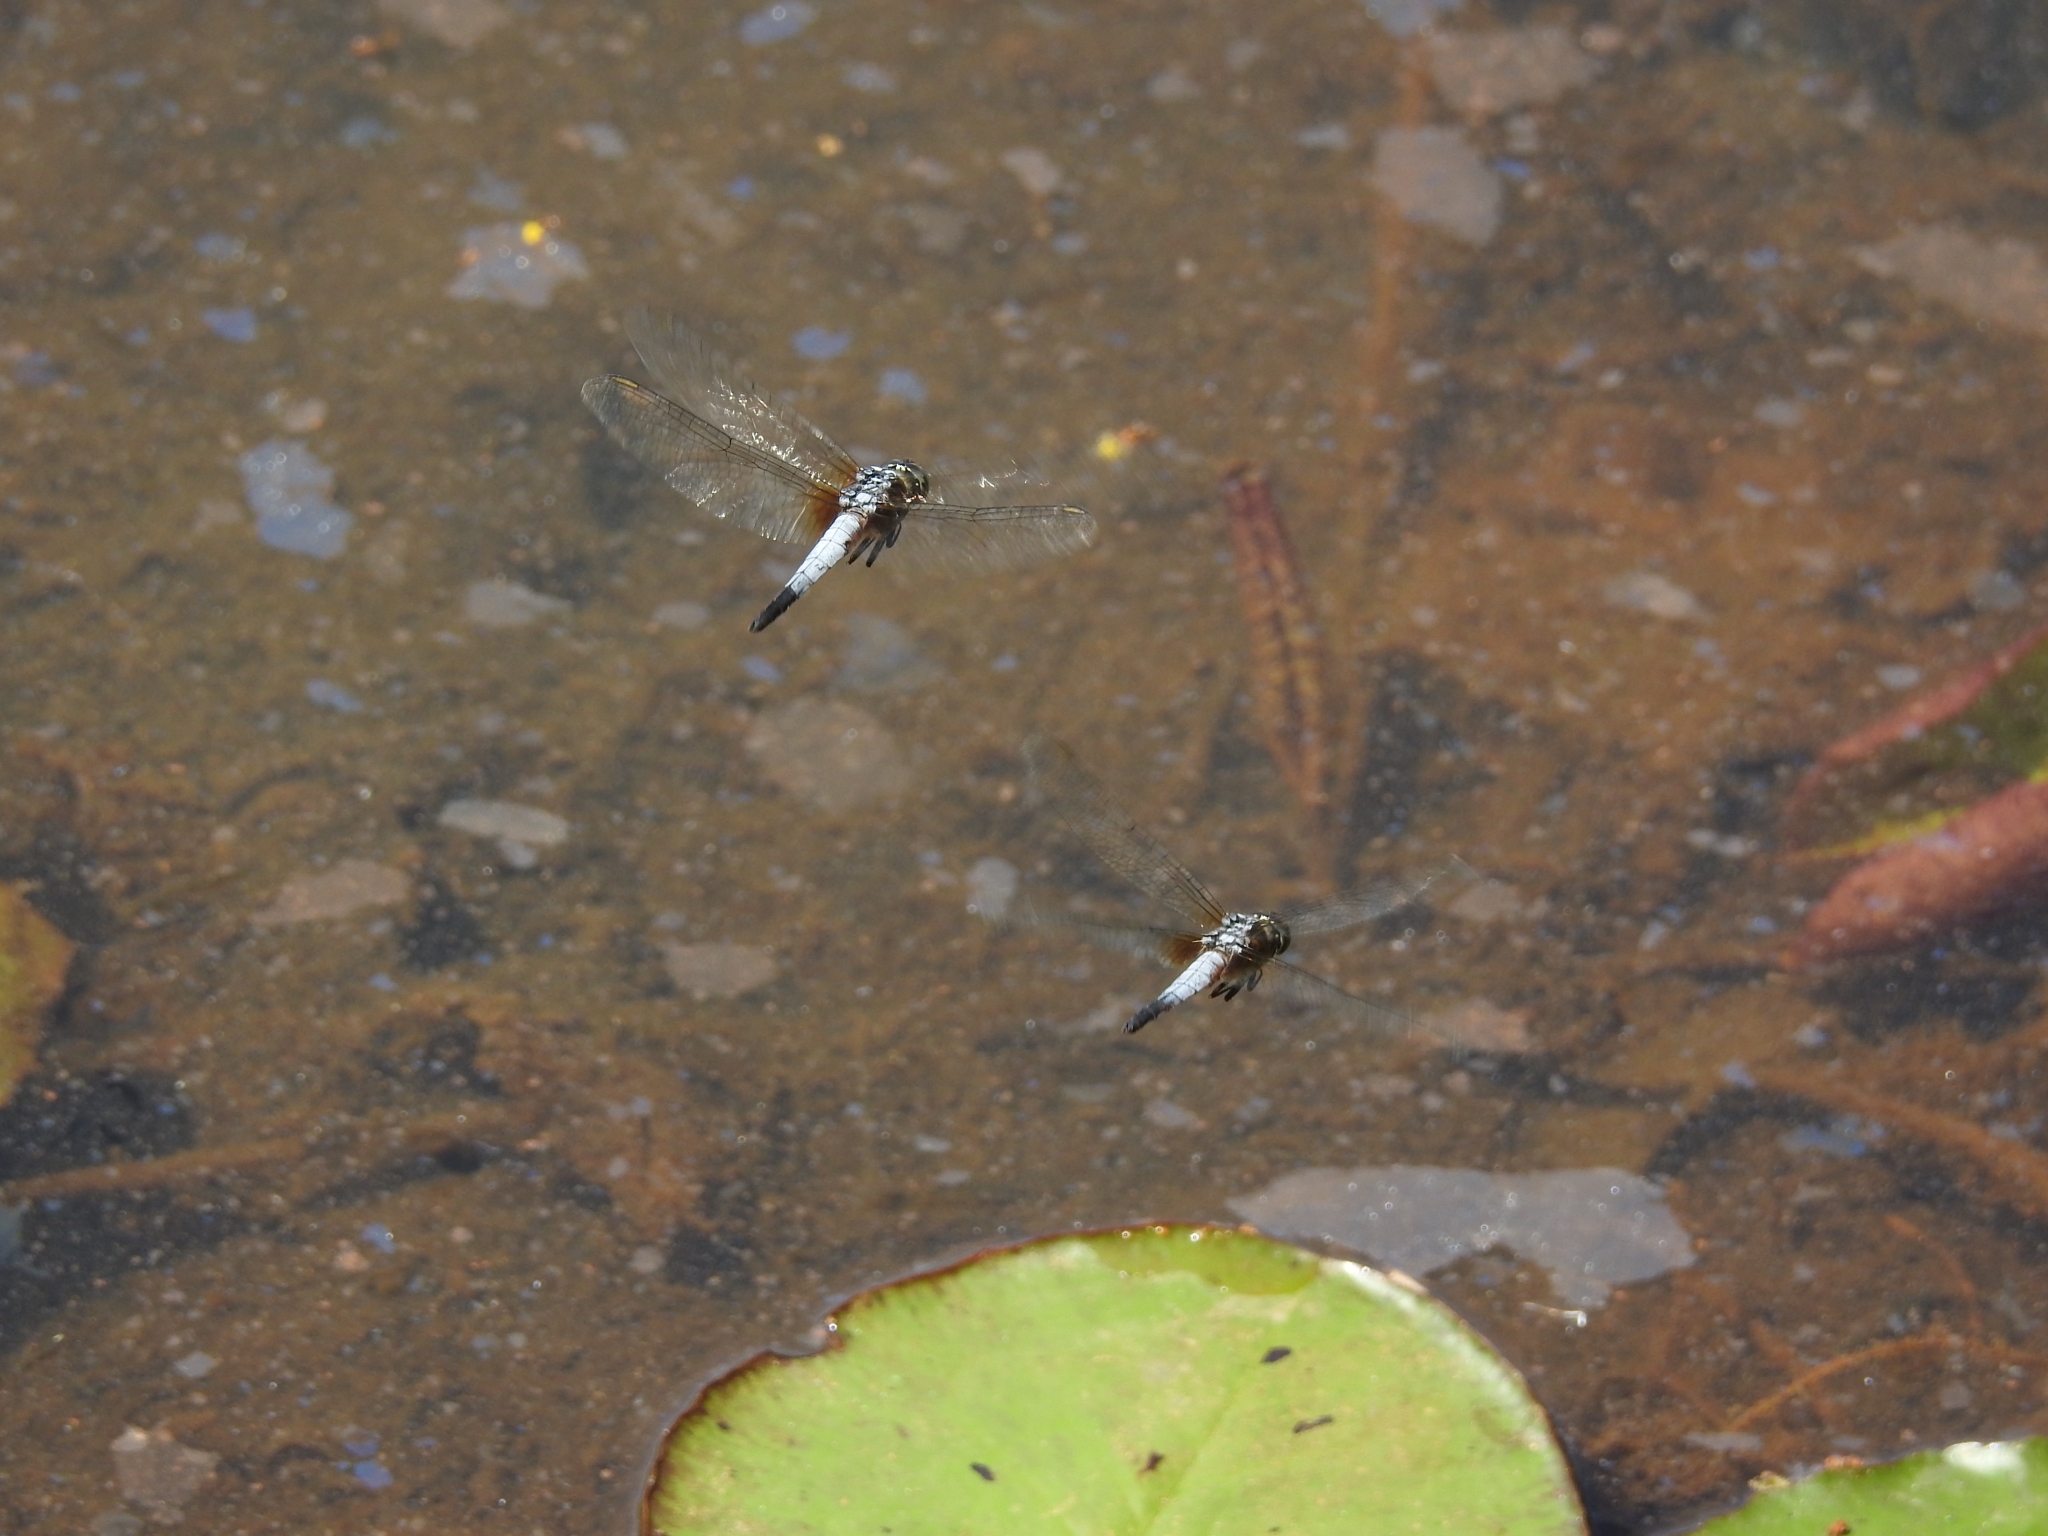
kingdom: Animalia
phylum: Arthropoda
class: Insecta
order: Odonata
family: Libellulidae
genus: Brachydiplax
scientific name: Brachydiplax chalybea
